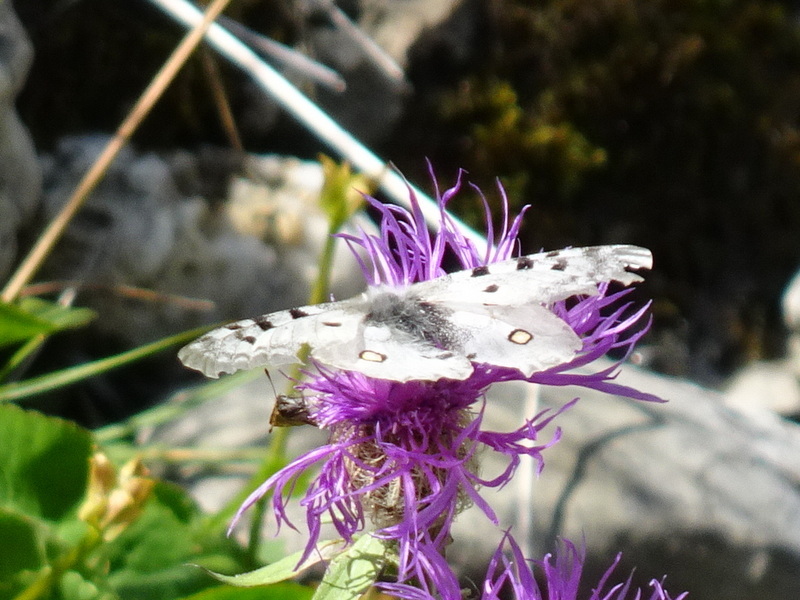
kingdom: Animalia
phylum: Arthropoda
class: Insecta
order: Lepidoptera
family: Papilionidae
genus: Parnassius
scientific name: Parnassius apollo
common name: Apollo
